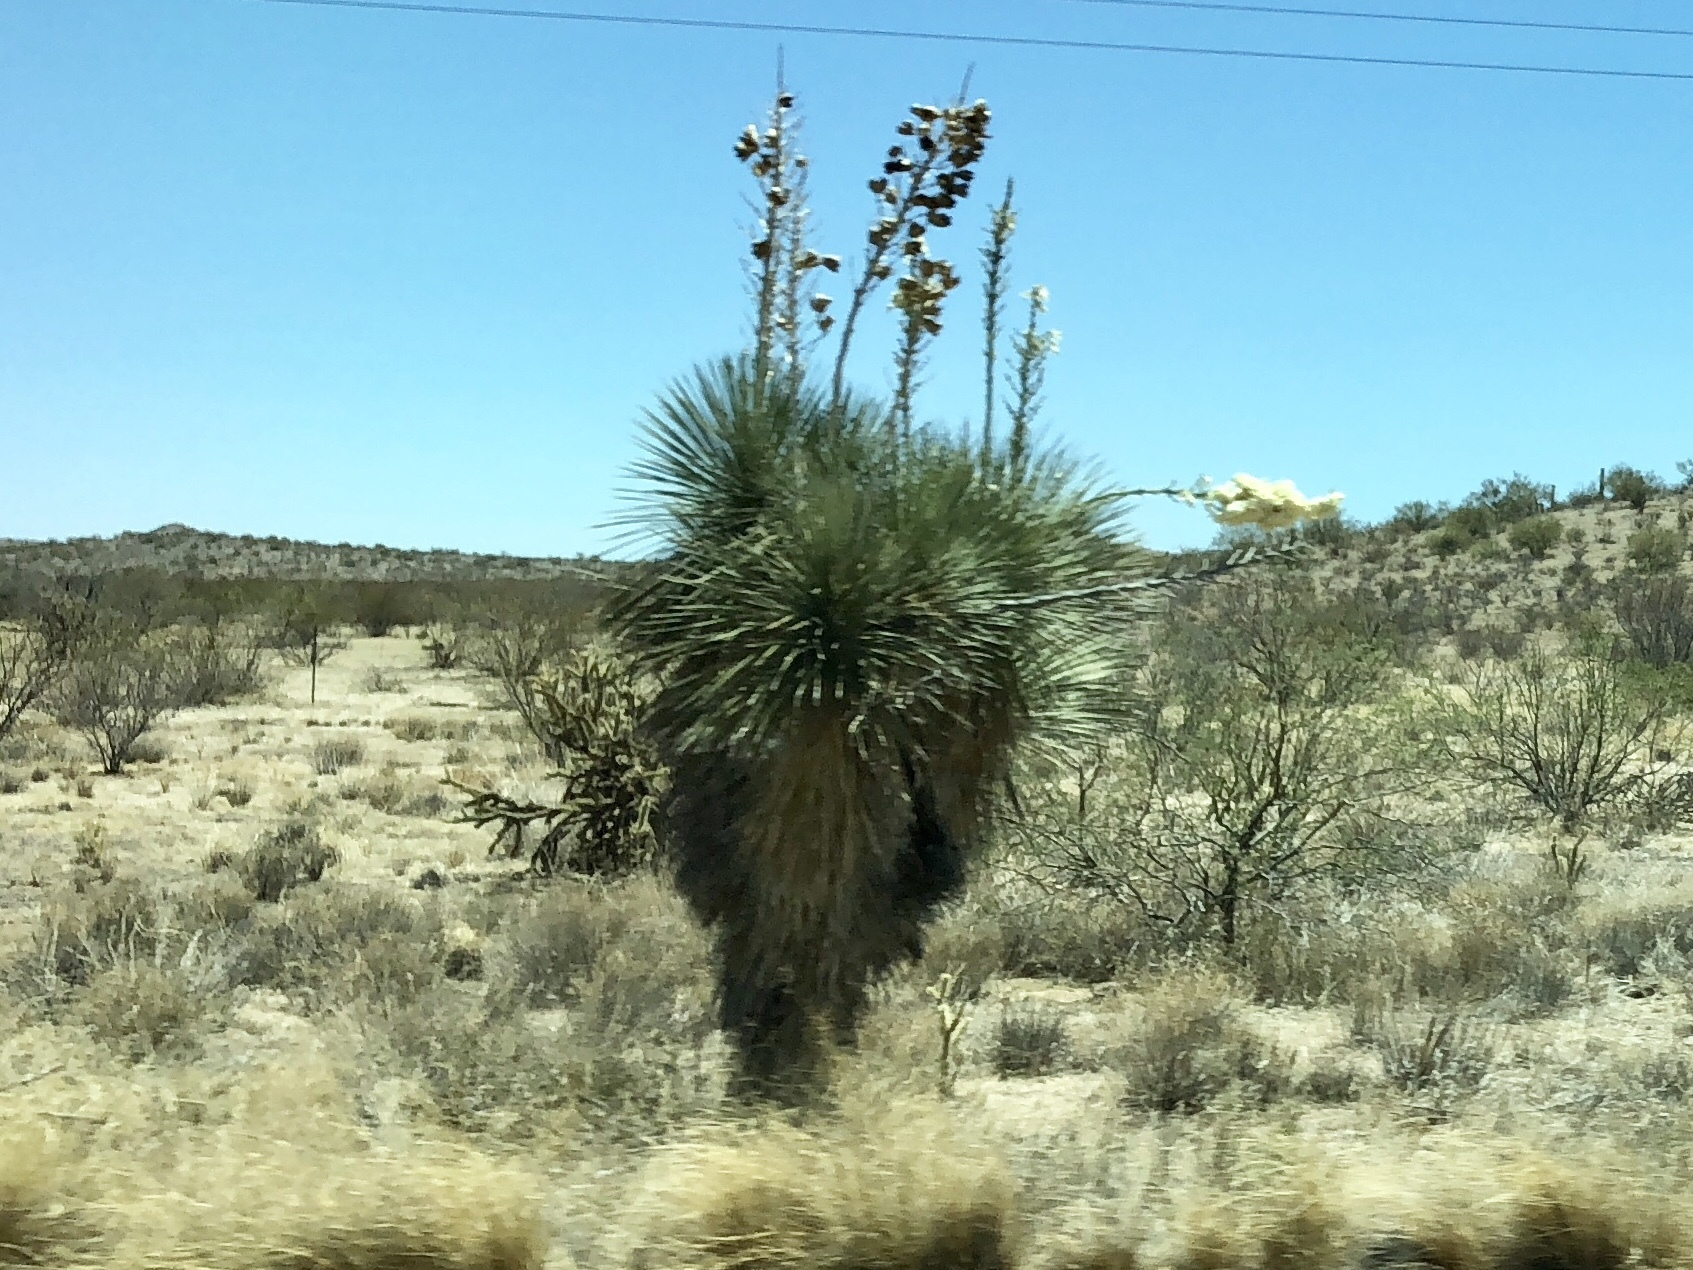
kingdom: Plantae
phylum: Tracheophyta
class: Liliopsida
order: Asparagales
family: Asparagaceae
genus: Yucca
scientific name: Yucca elata
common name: Palmella
